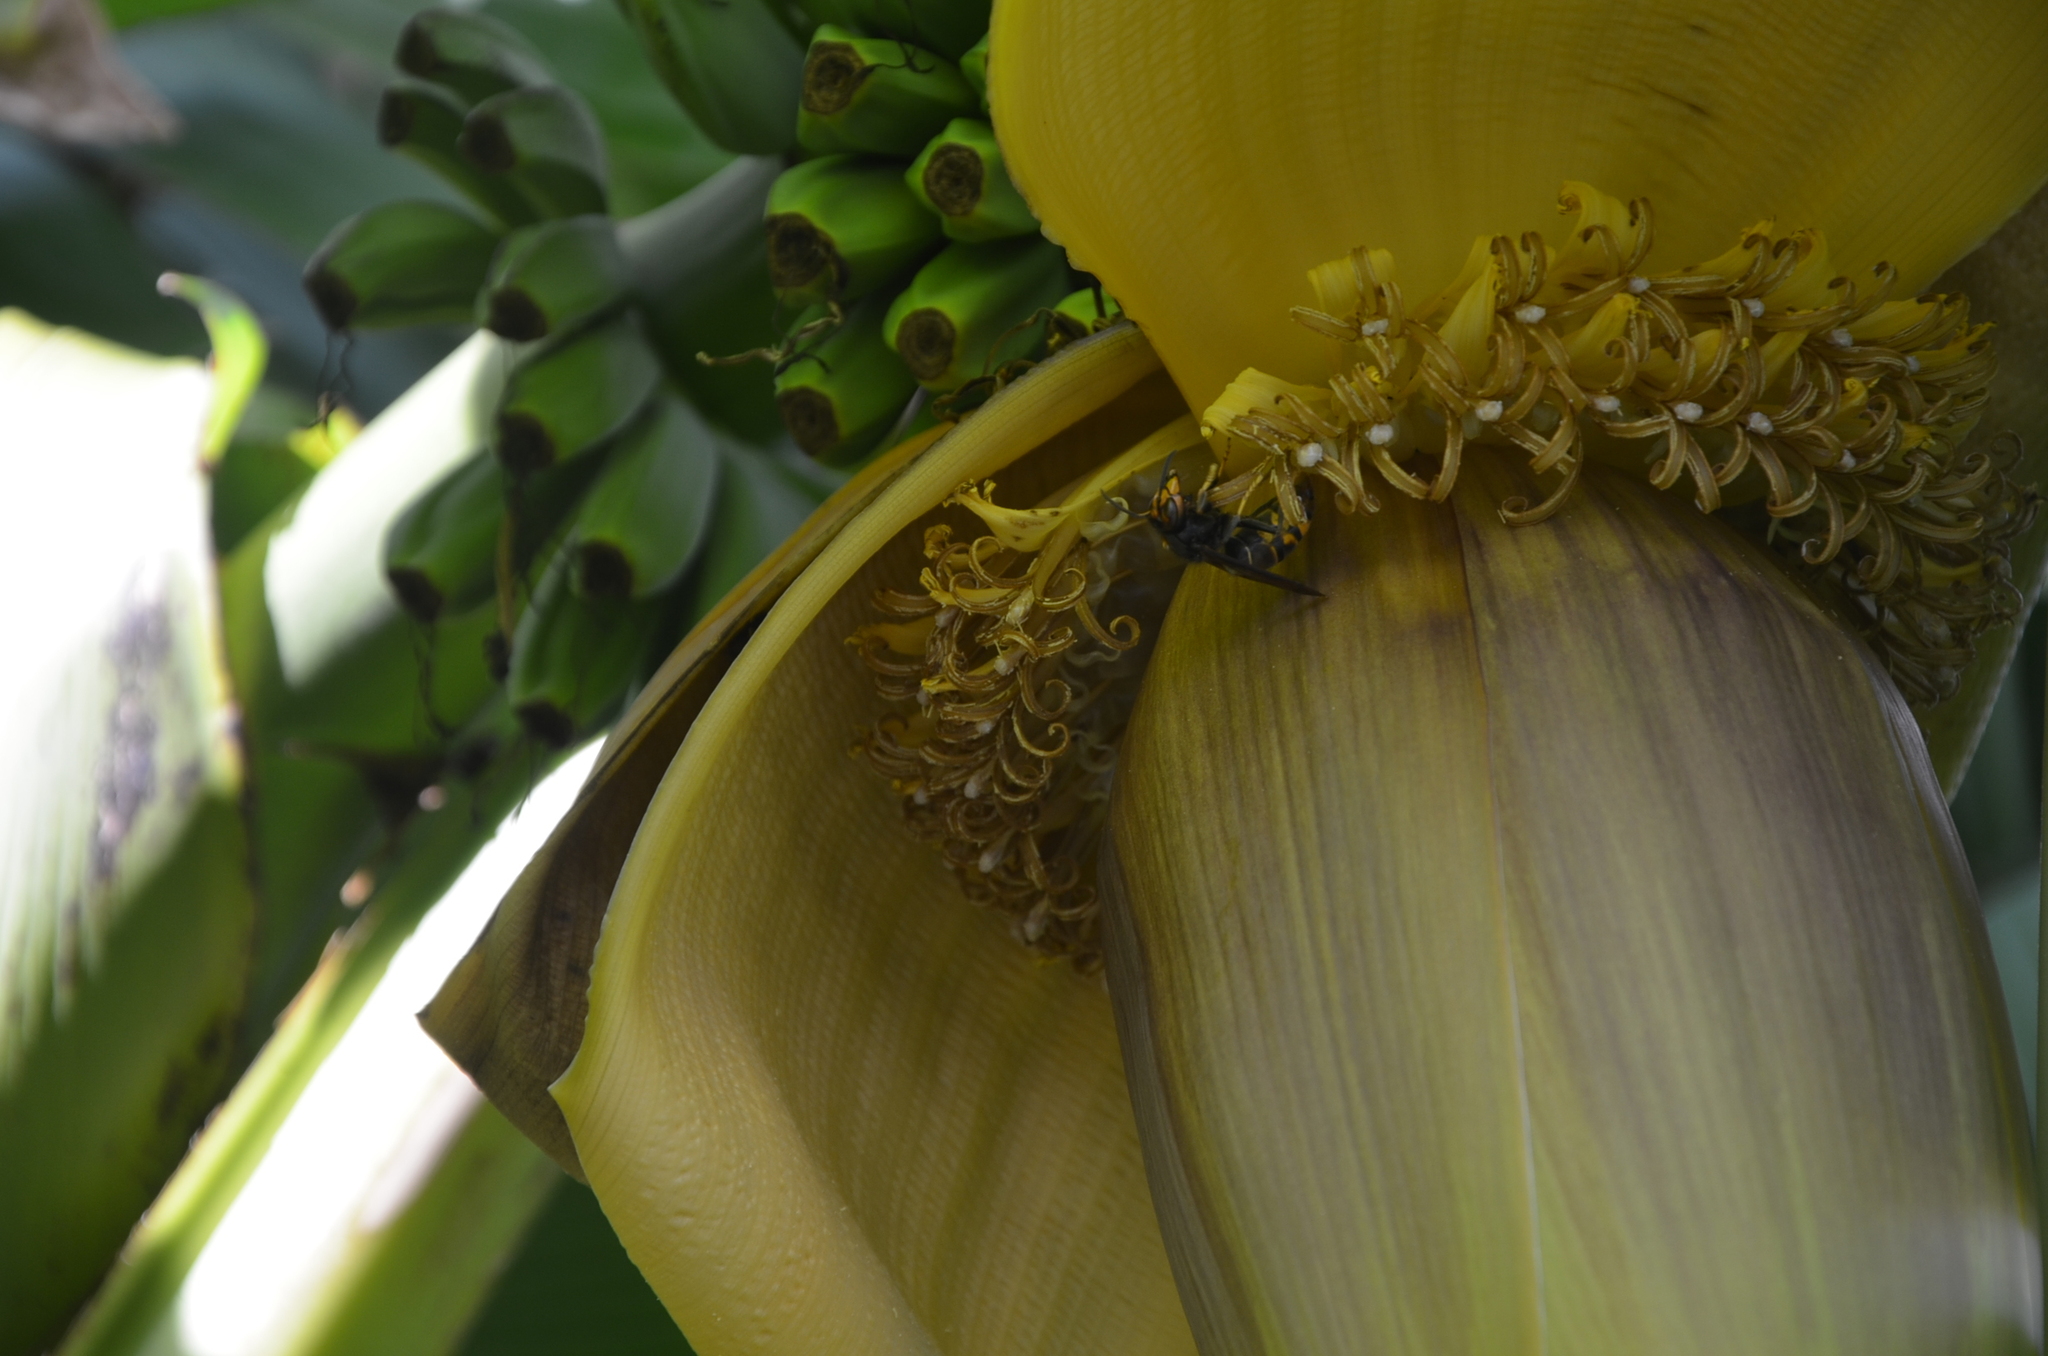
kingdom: Animalia
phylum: Arthropoda
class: Insecta
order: Hymenoptera
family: Vespidae
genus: Vespa
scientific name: Vespa velutina
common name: Asian hornet
